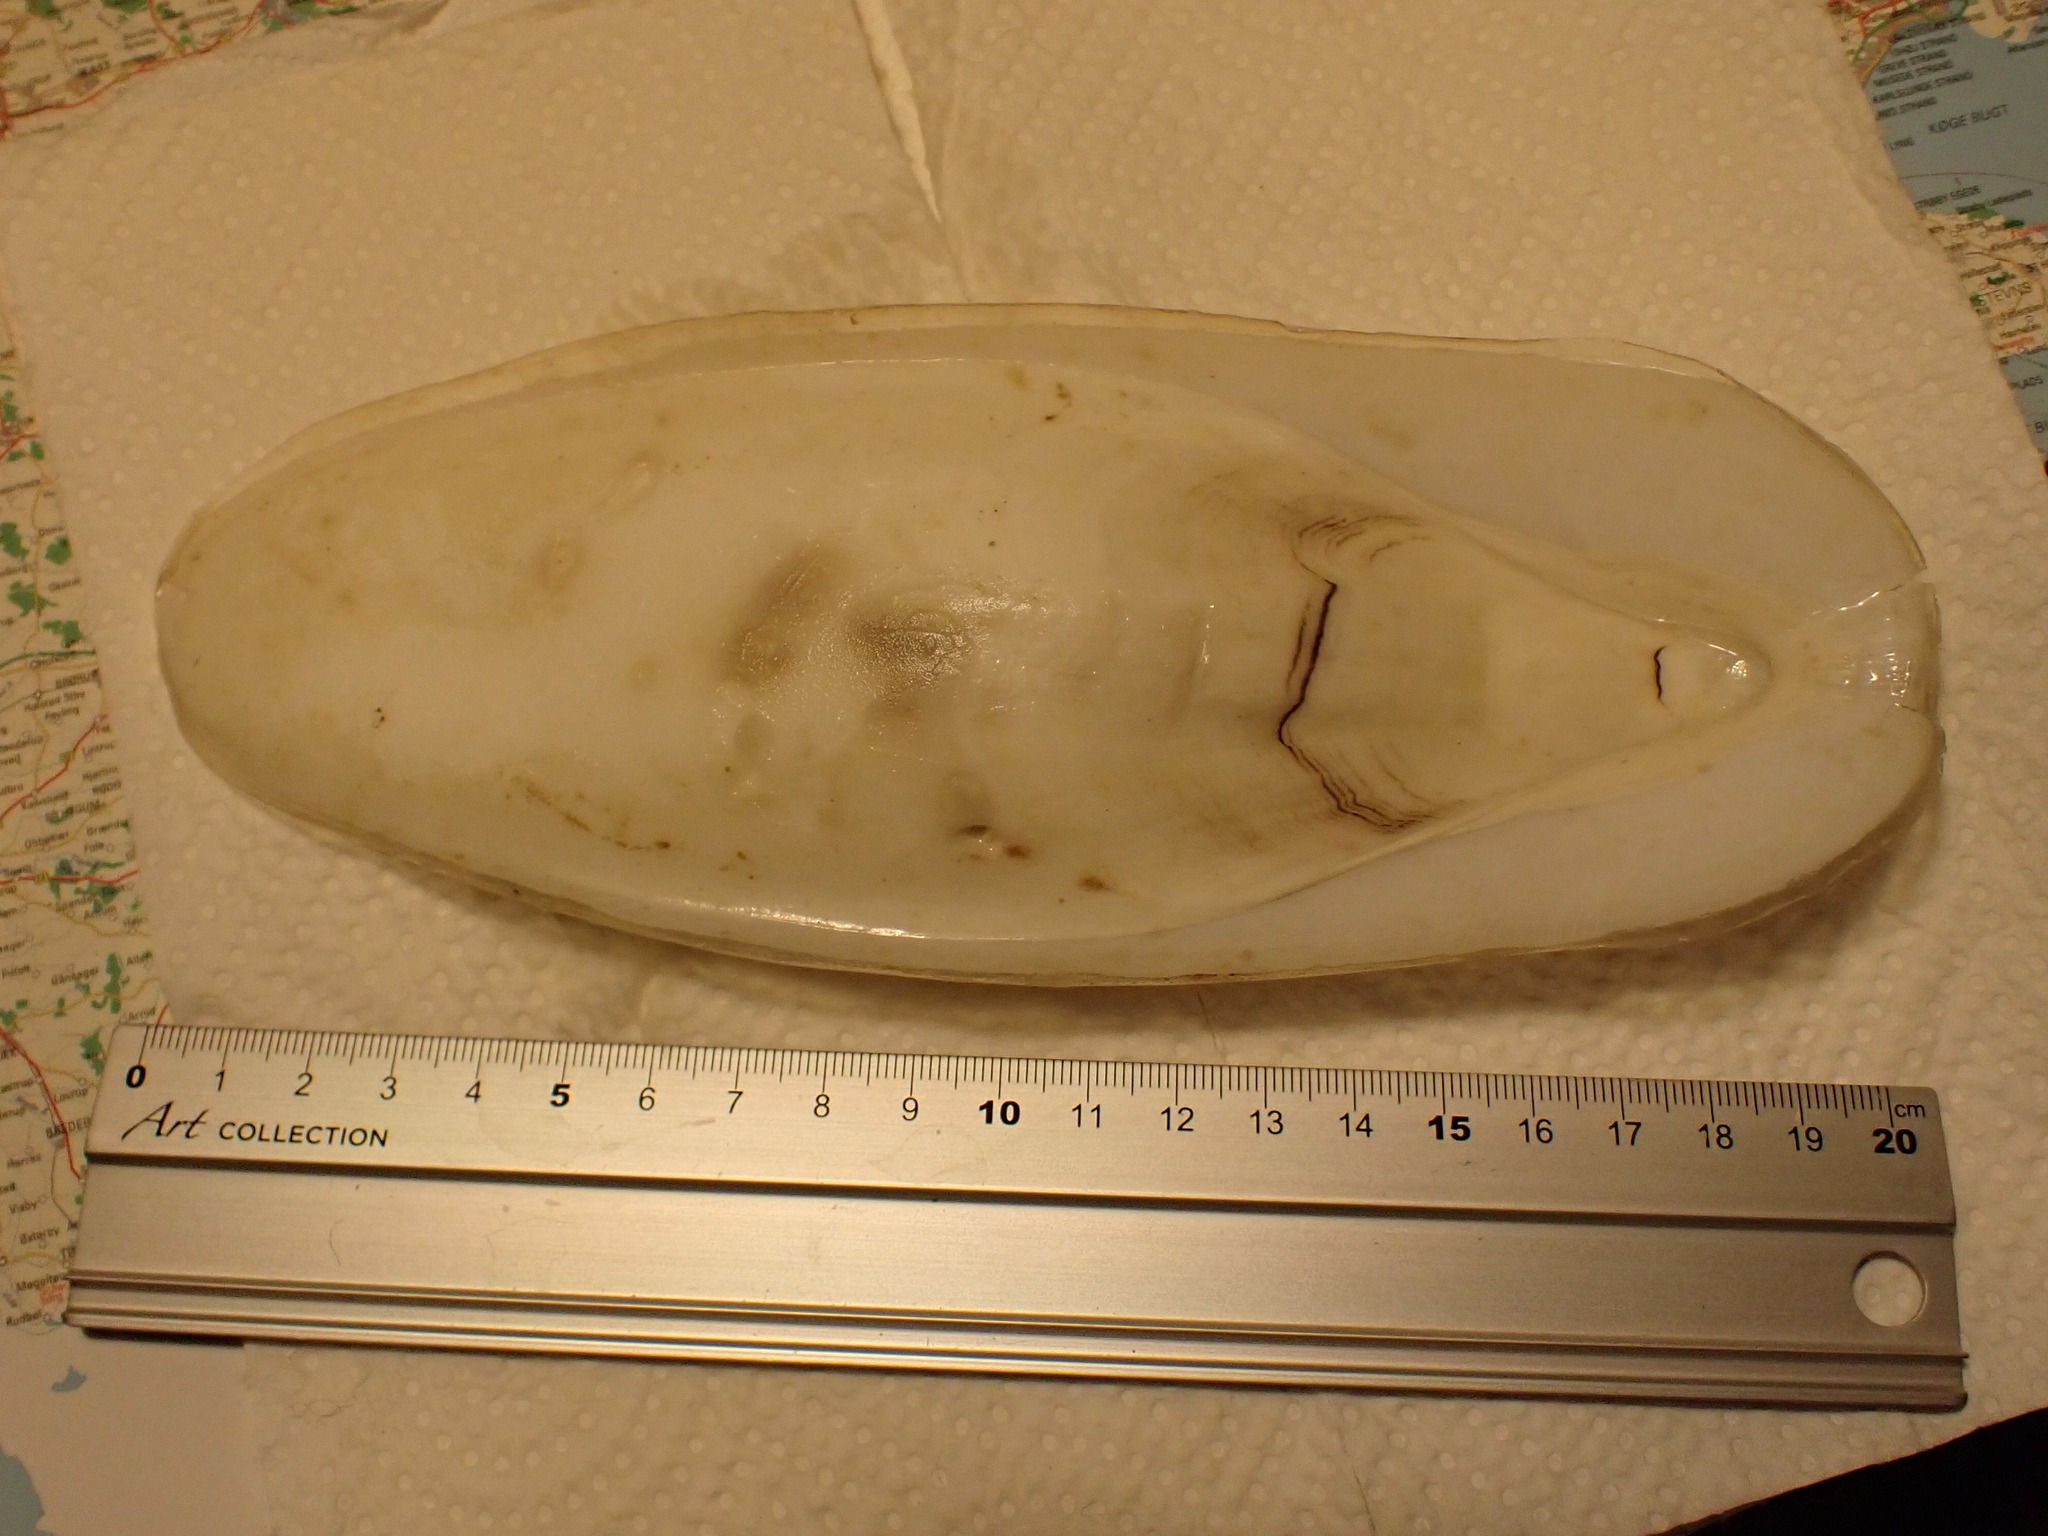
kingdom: Animalia
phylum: Mollusca
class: Cephalopoda
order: Sepiida
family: Sepiidae
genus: Sepia
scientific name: Sepia officinalis
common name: Common cuttlefish
